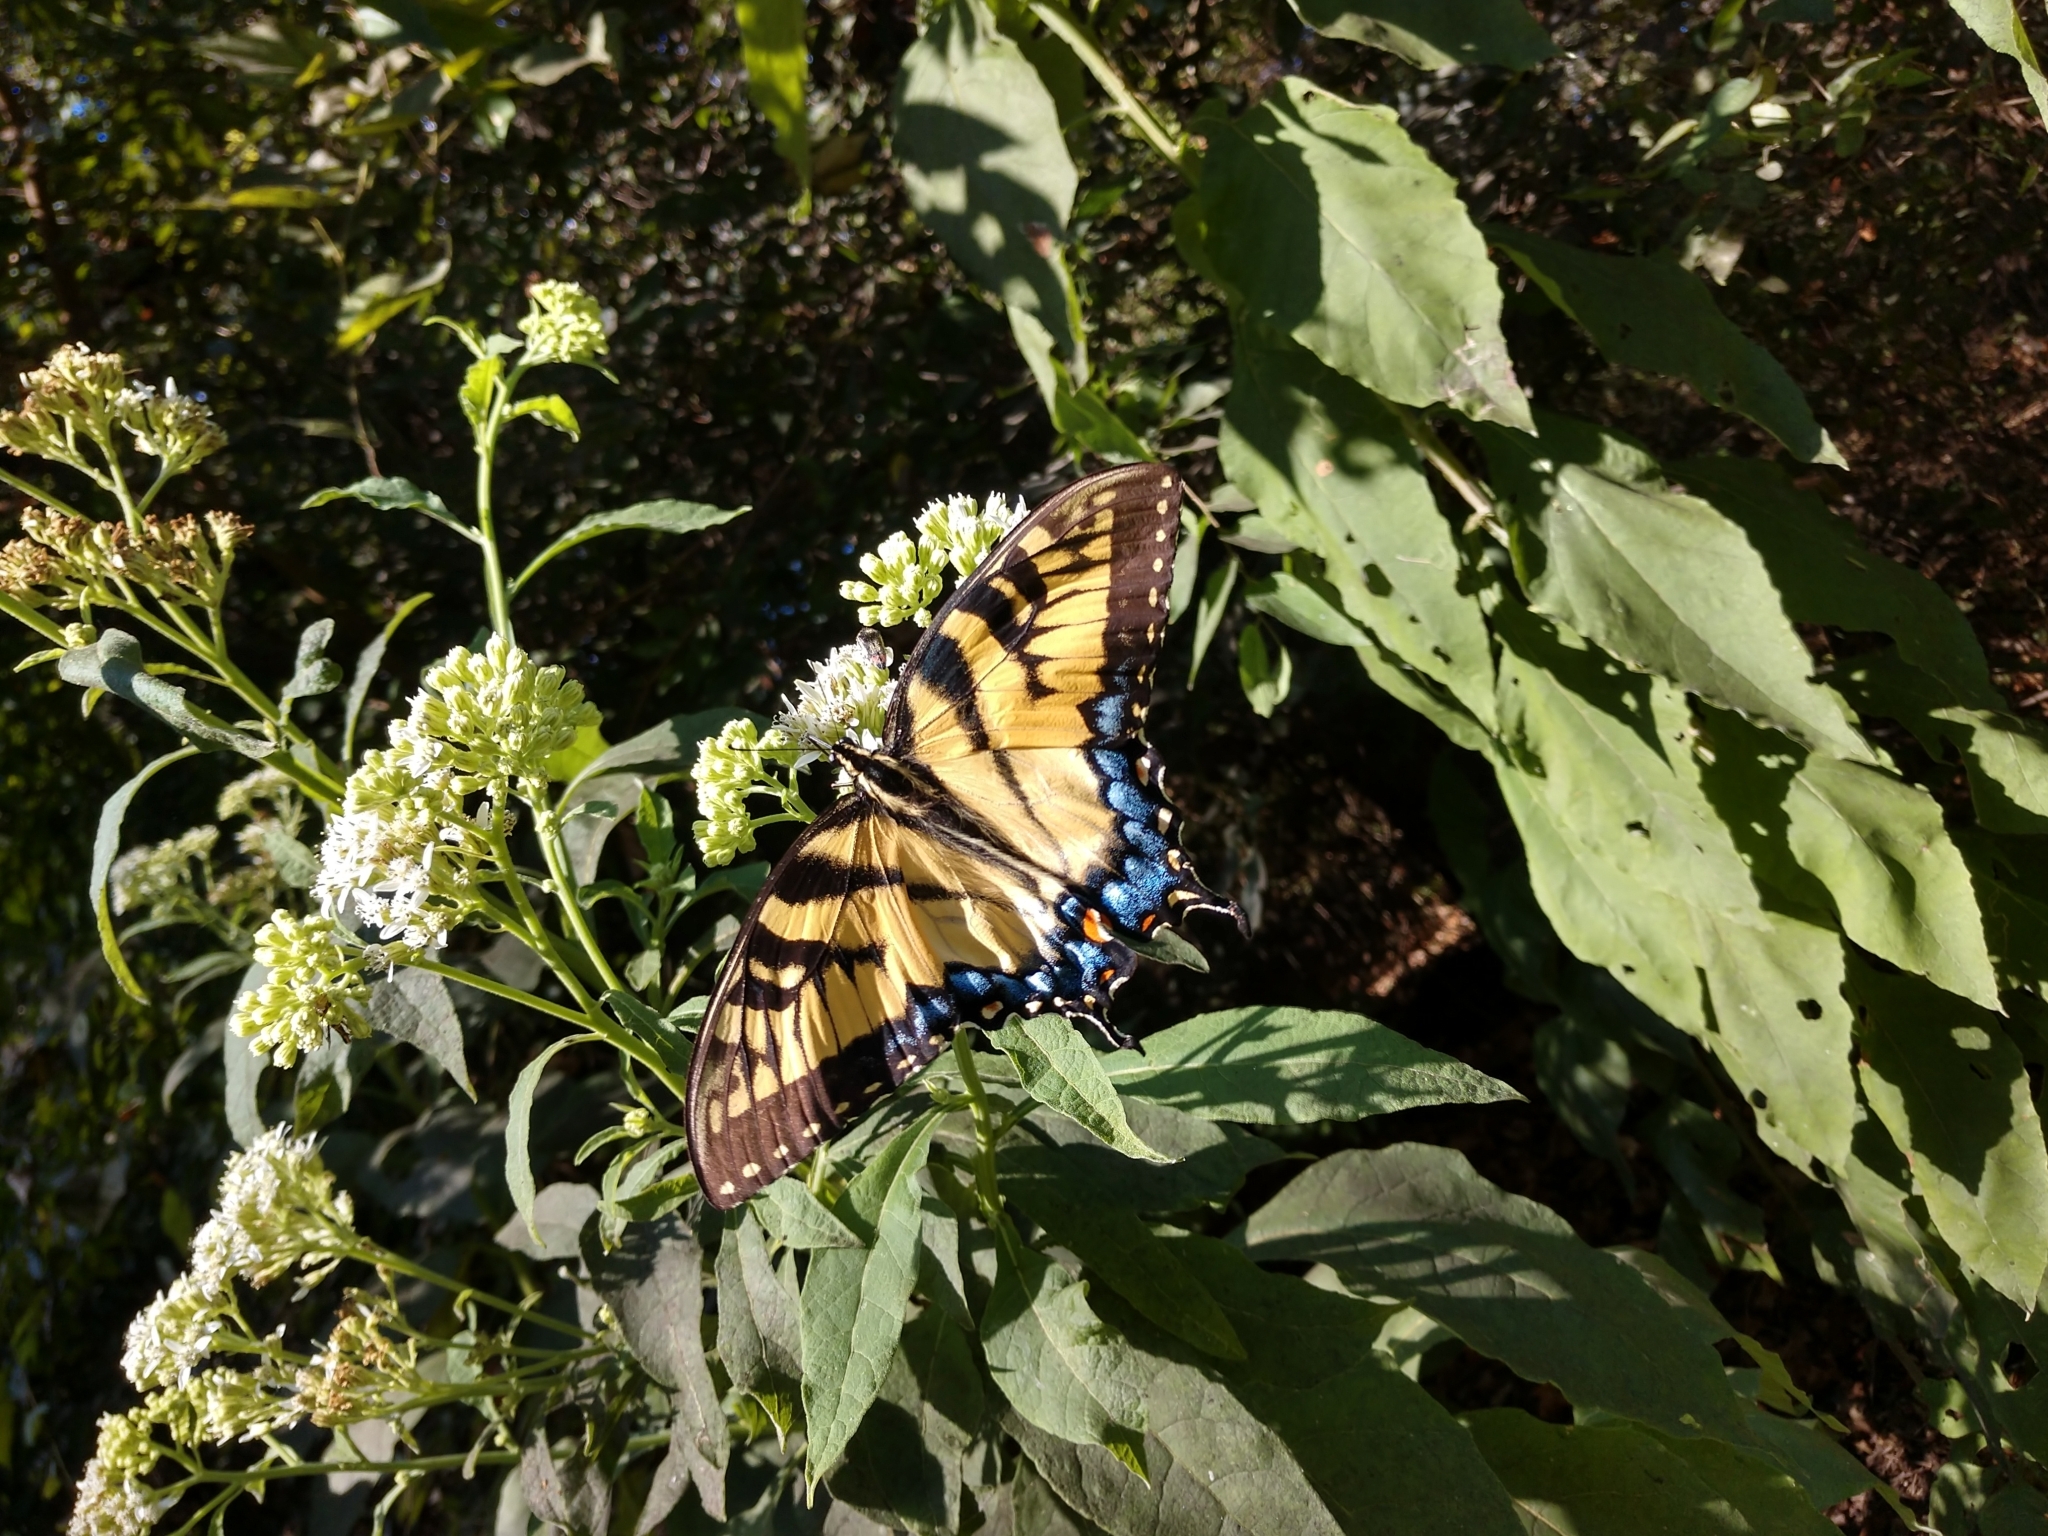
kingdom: Animalia
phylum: Arthropoda
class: Insecta
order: Lepidoptera
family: Papilionidae
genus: Papilio
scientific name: Papilio glaucus
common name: Tiger swallowtail
